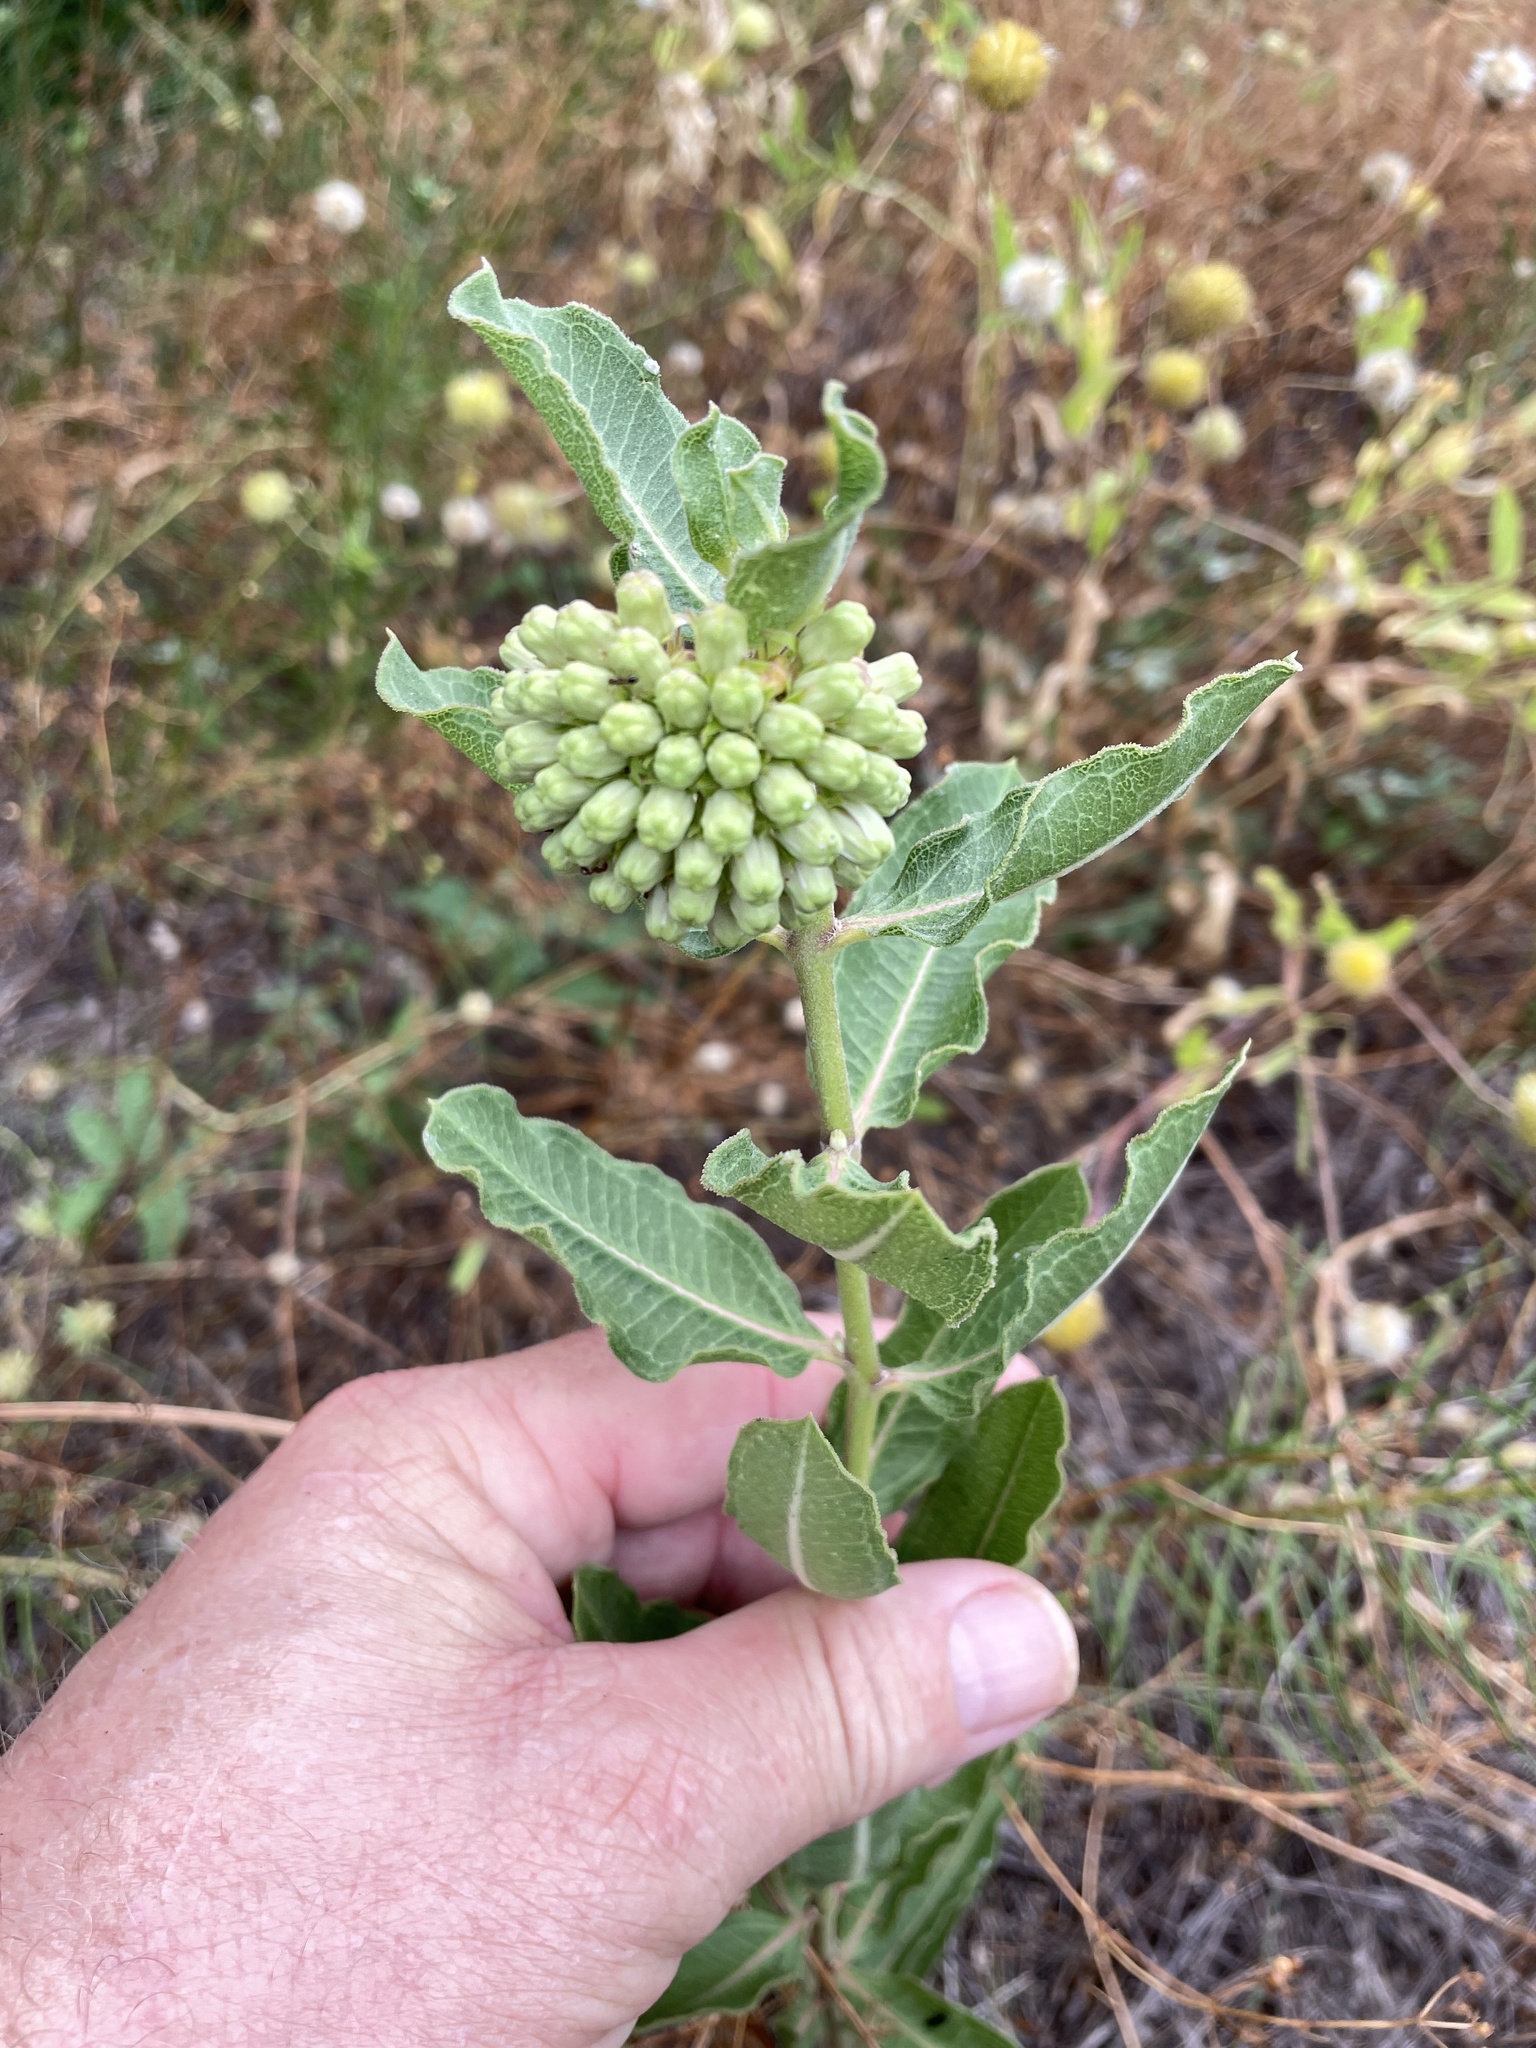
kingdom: Plantae
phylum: Tracheophyta
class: Magnoliopsida
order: Gentianales
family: Apocynaceae
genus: Asclepias
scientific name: Asclepias viridiflora
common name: Green comet milkweed
